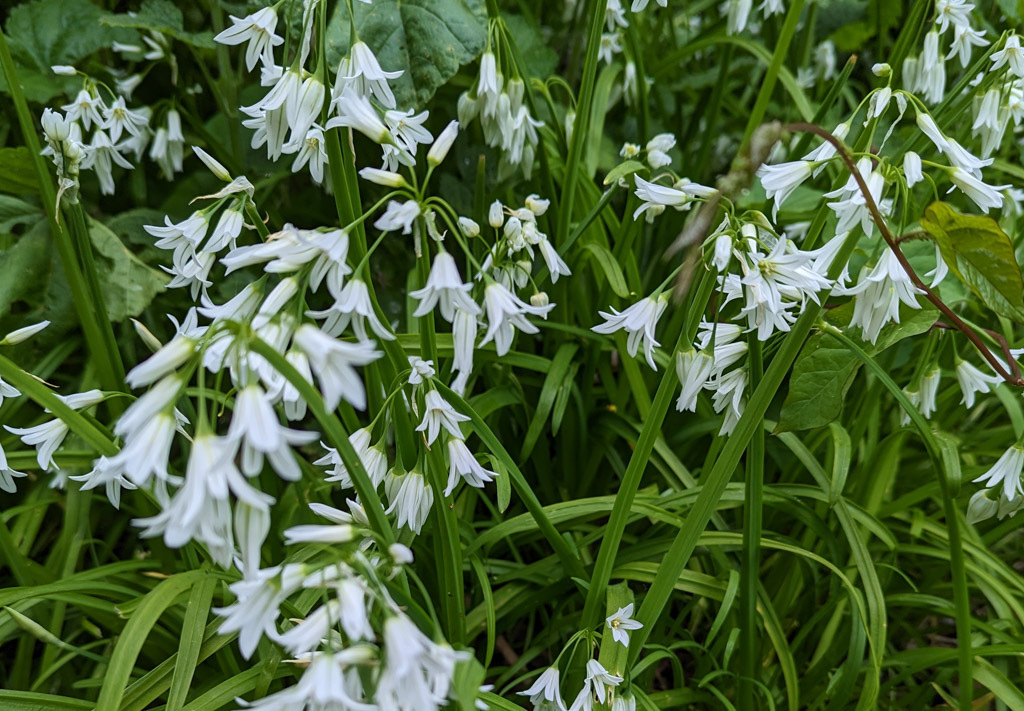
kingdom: Plantae
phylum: Tracheophyta
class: Liliopsida
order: Asparagales
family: Amaryllidaceae
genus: Allium
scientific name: Allium triquetrum
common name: Three-cornered garlic
